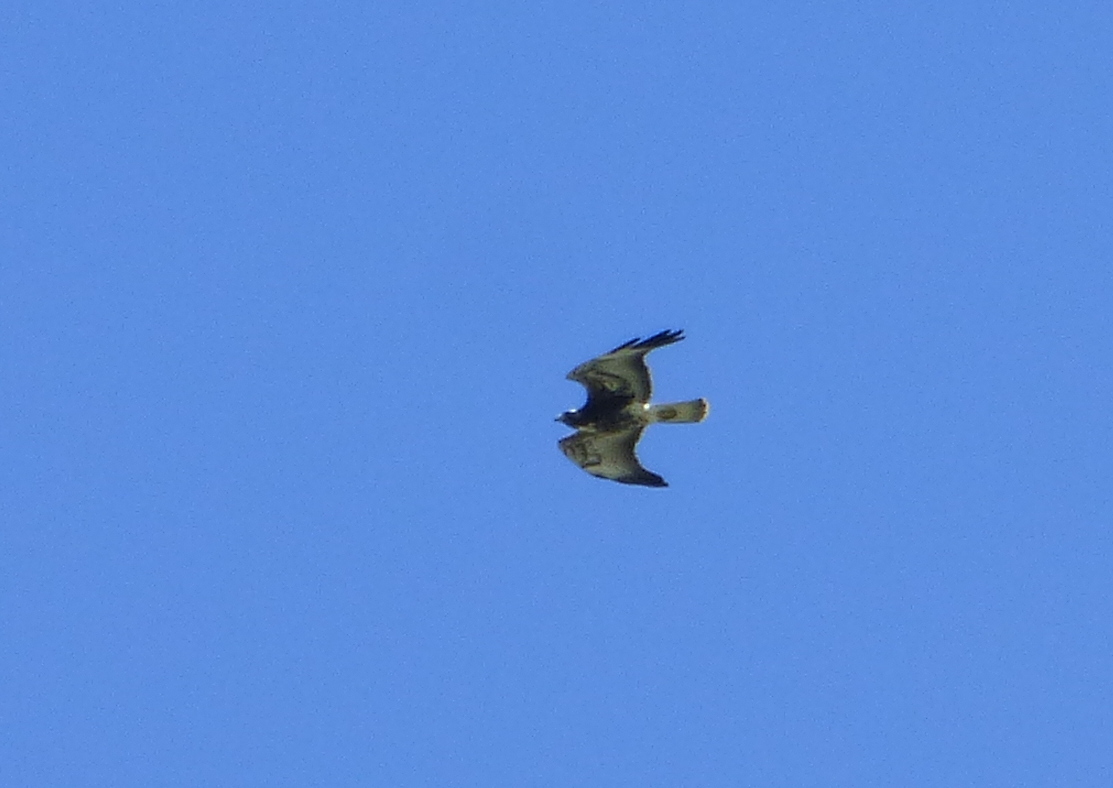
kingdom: Animalia
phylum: Chordata
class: Aves
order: Accipitriformes
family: Accipitridae
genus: Buteo
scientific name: Buteo albicaudatus
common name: White-tailed hawk
